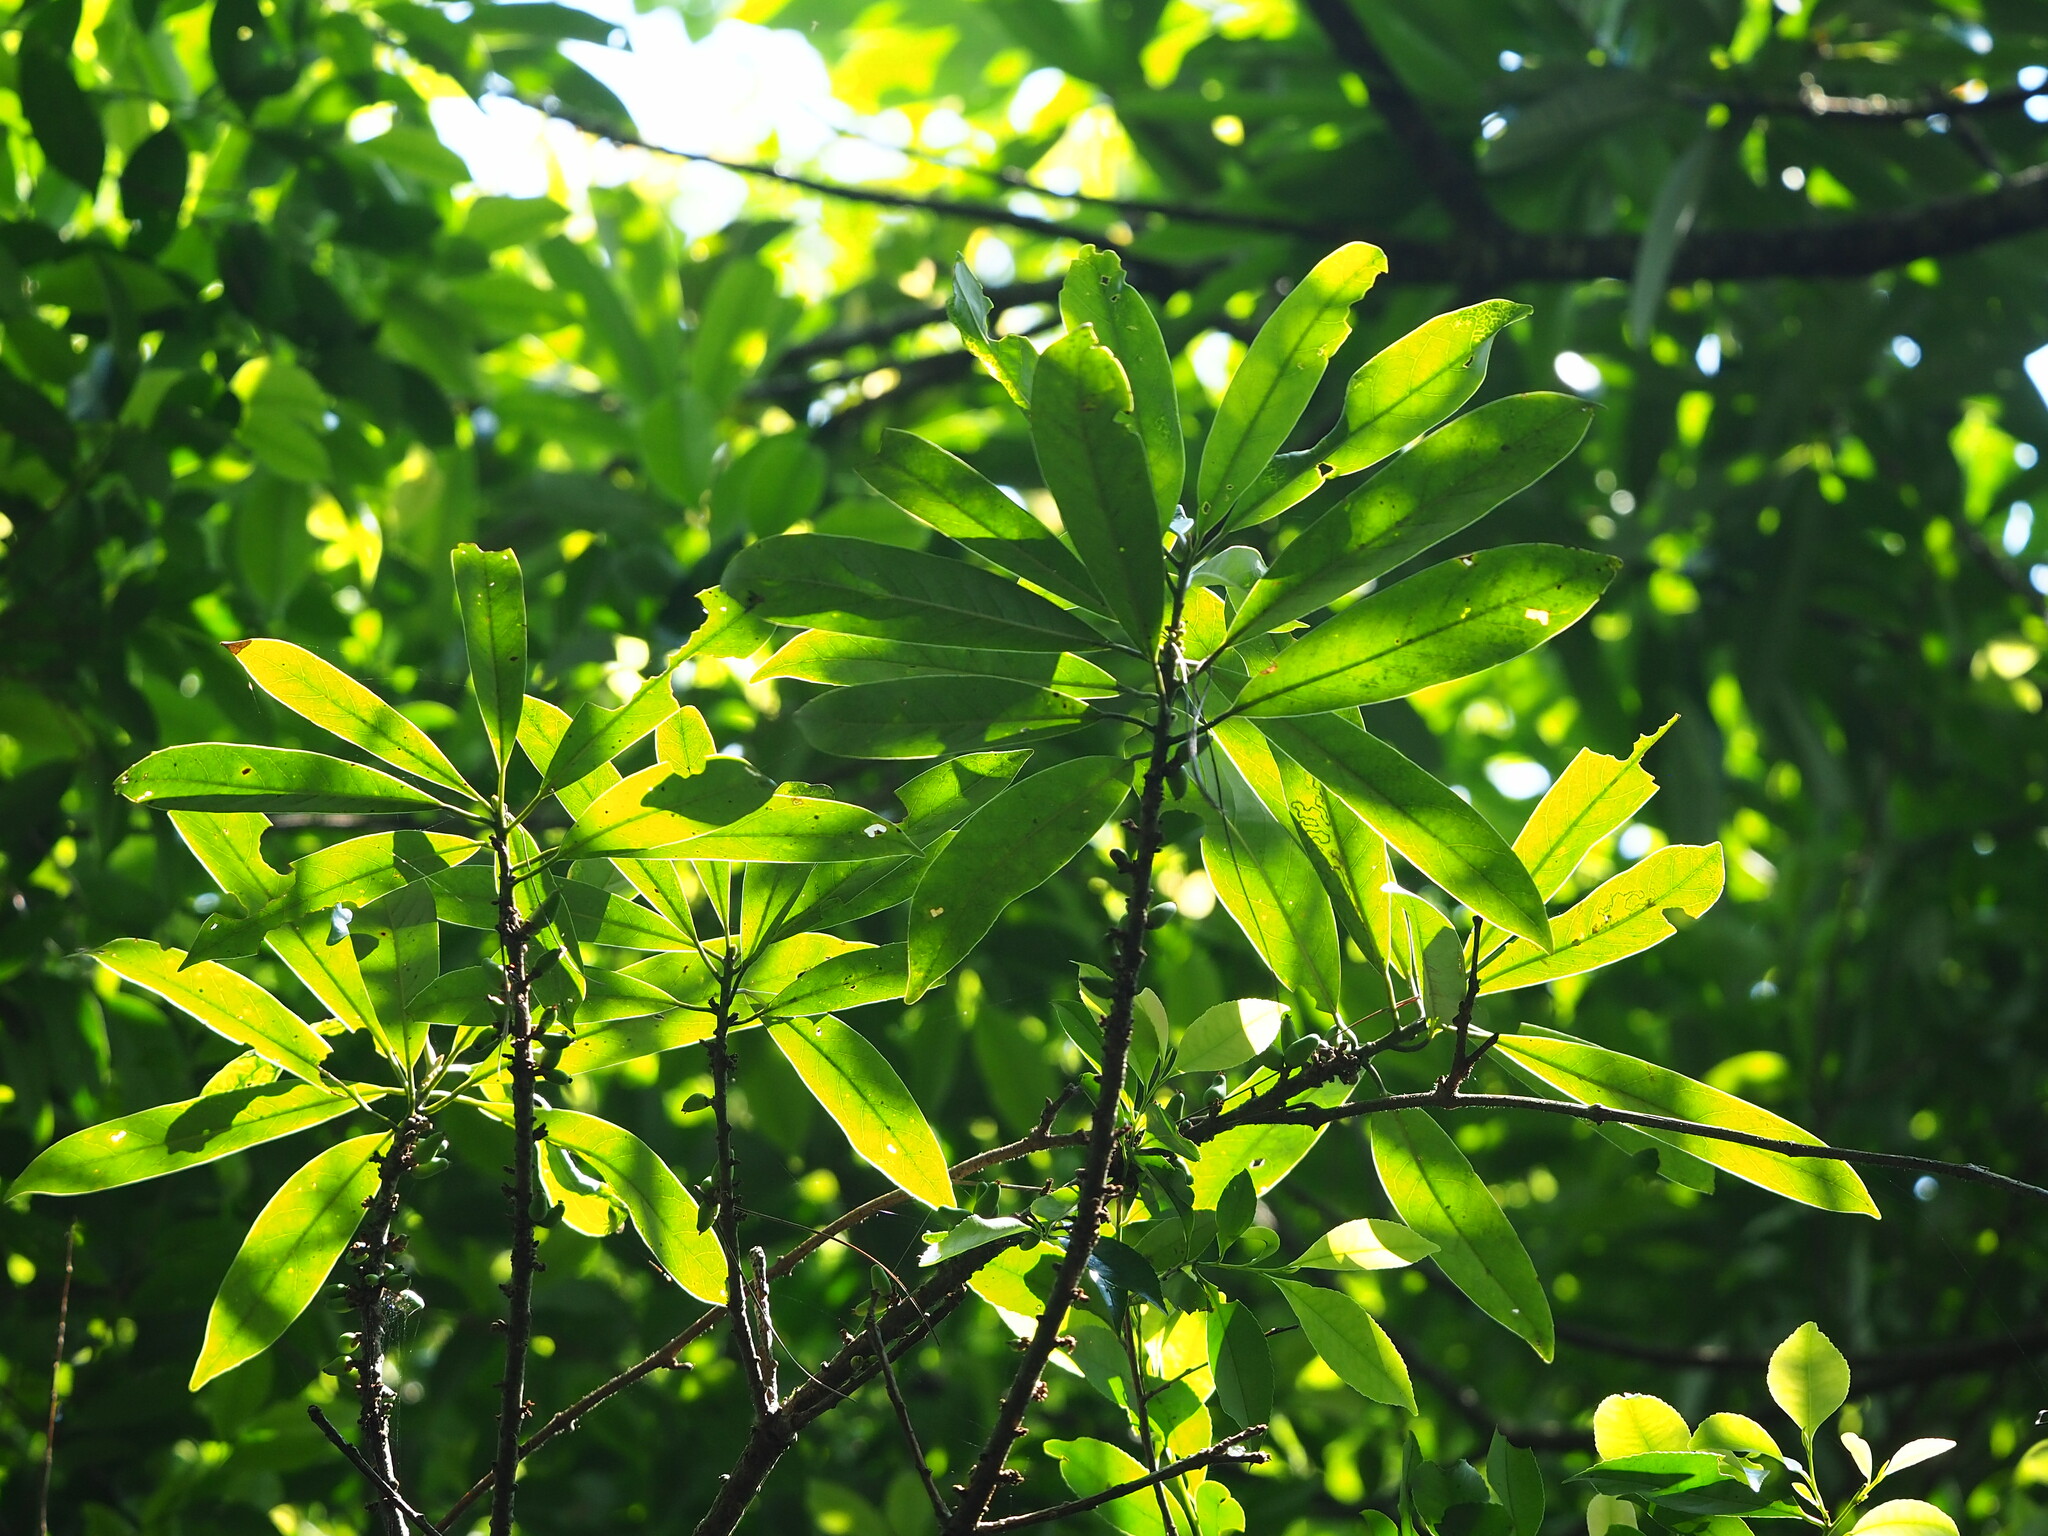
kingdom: Plantae
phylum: Tracheophyta
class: Magnoliopsida
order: Ericales
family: Symplocaceae
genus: Symplocos
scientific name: Symplocos glauca
